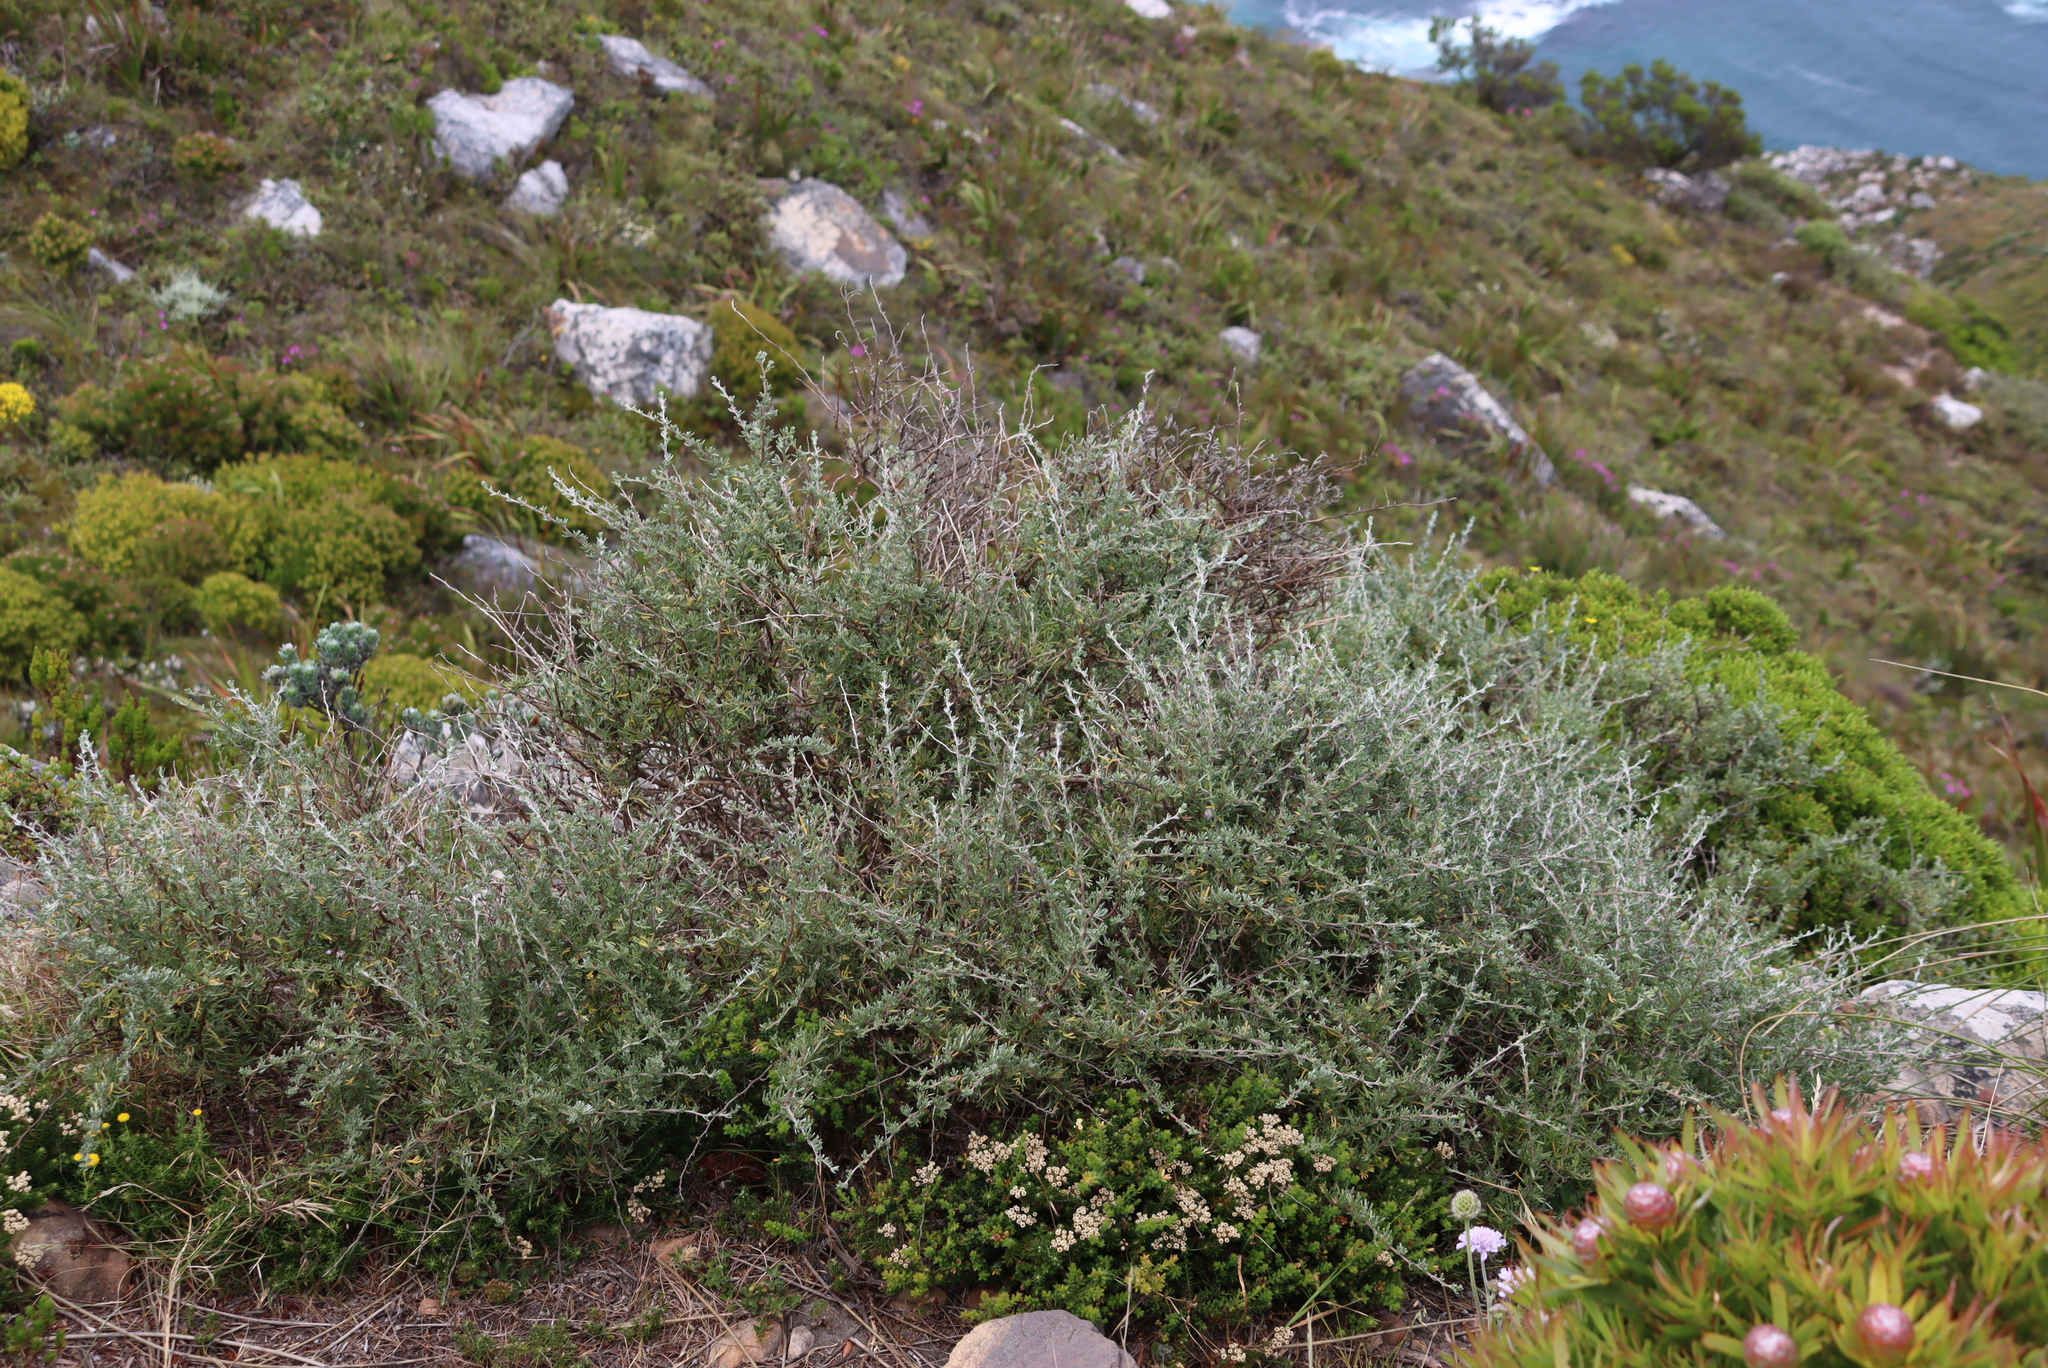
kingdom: Plantae
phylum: Tracheophyta
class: Magnoliopsida
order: Asterales
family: Asteraceae
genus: Eriocephalus
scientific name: Eriocephalus africanus
